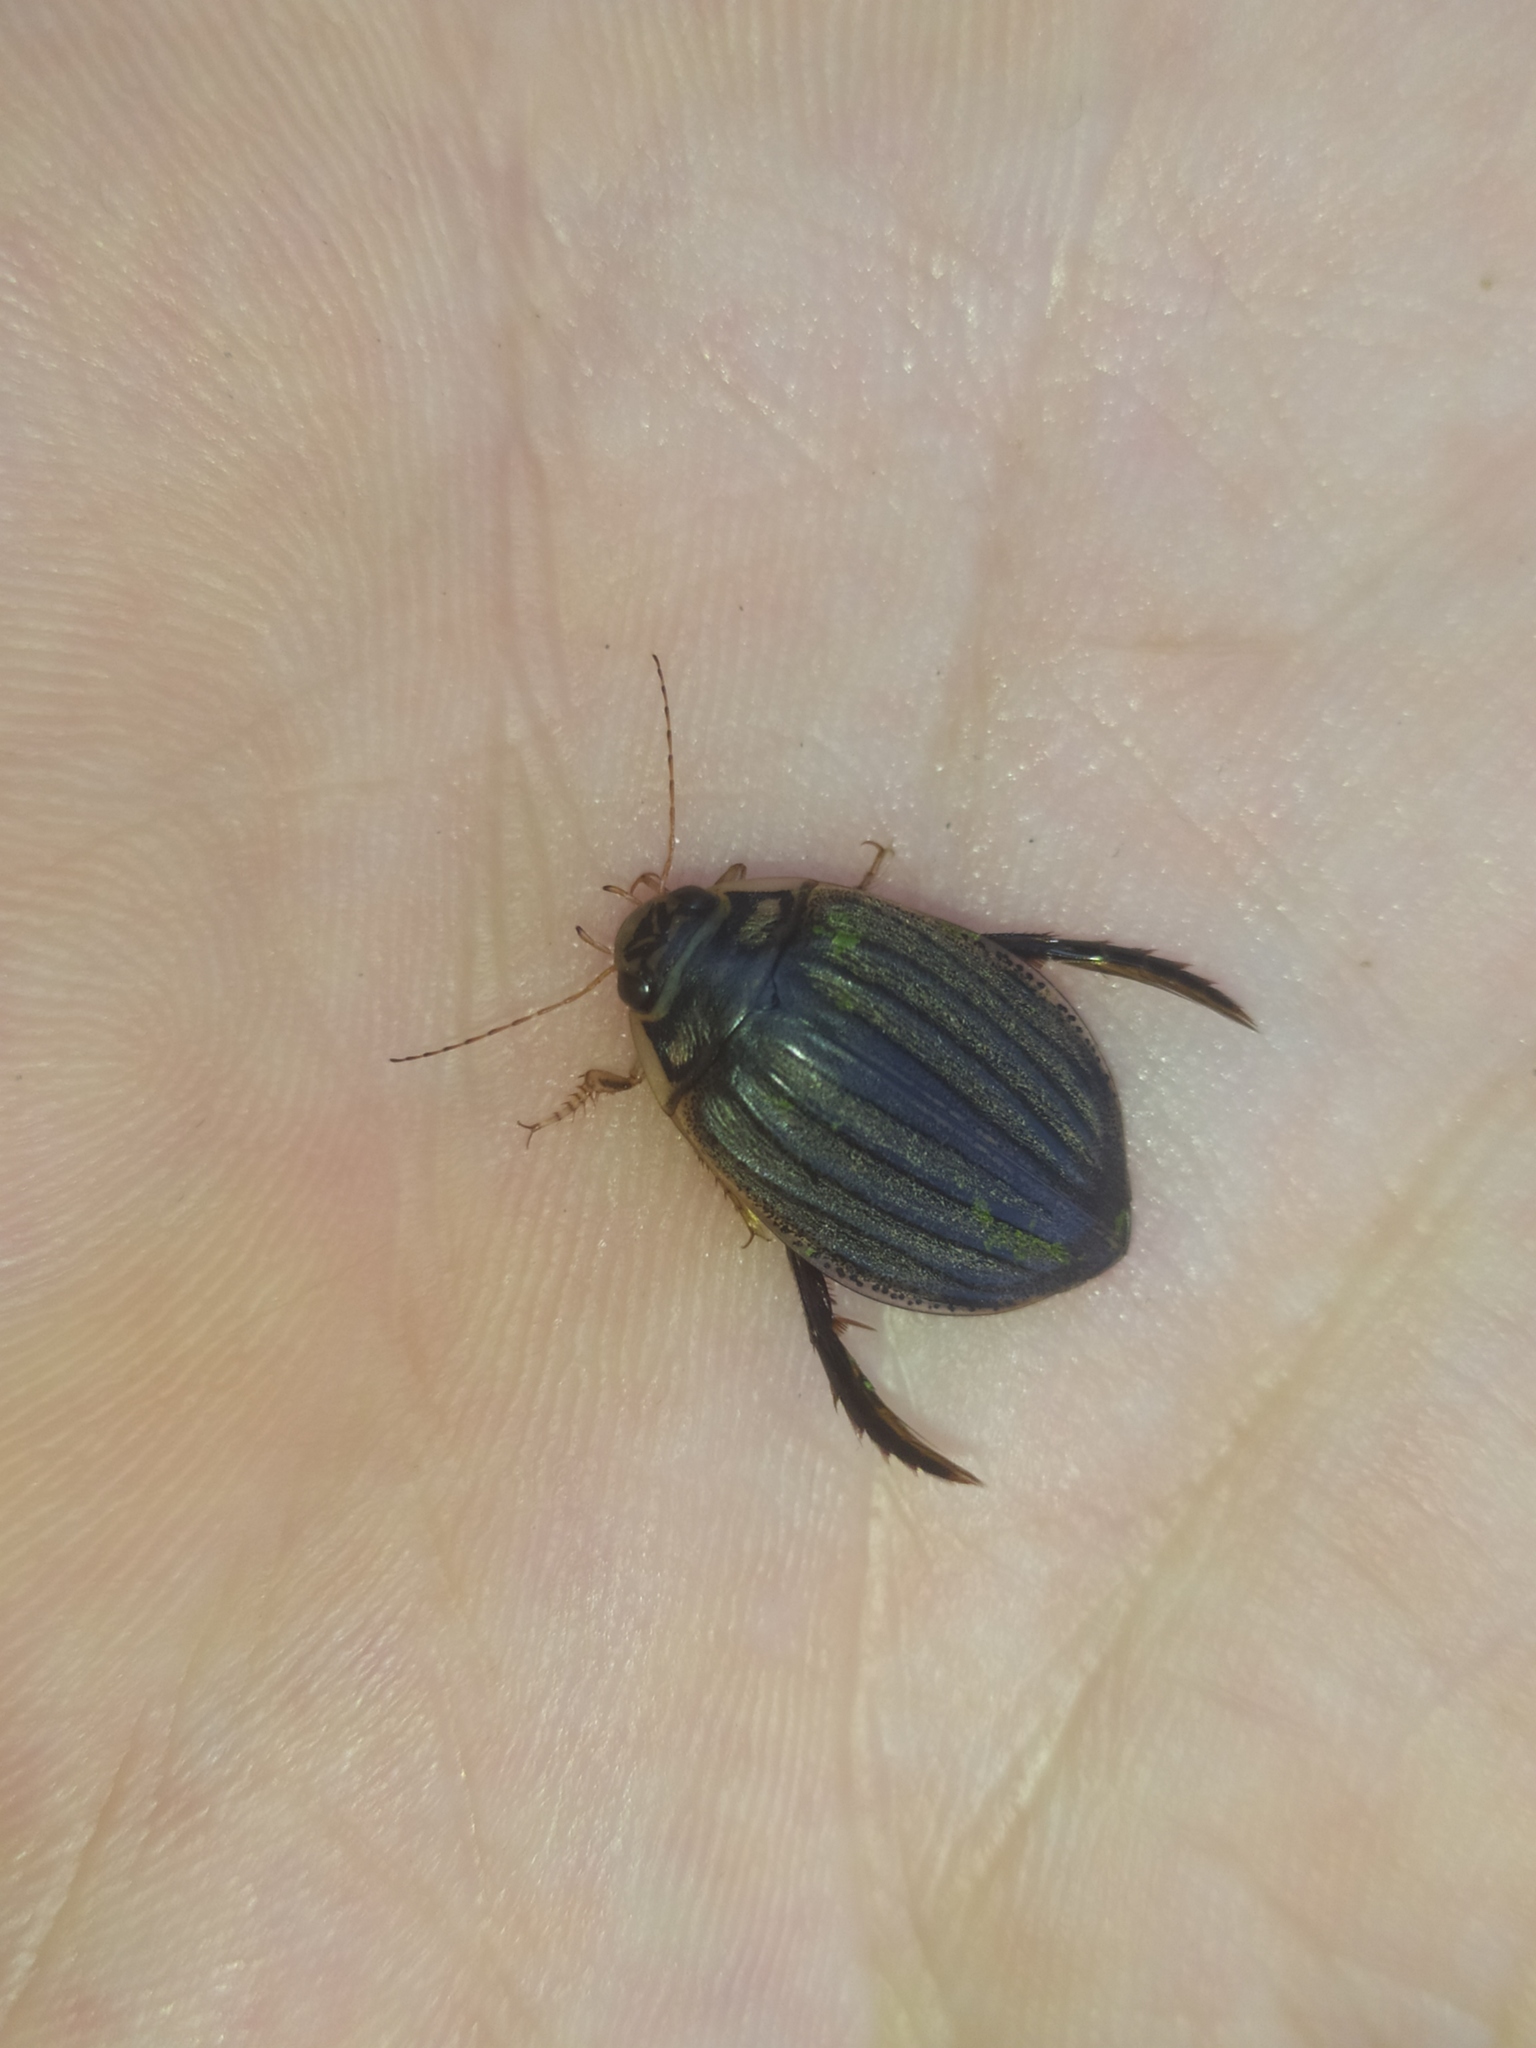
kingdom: Animalia
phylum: Arthropoda
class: Insecta
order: Coleoptera
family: Dytiscidae
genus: Acilius
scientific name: Acilius sulcatus
